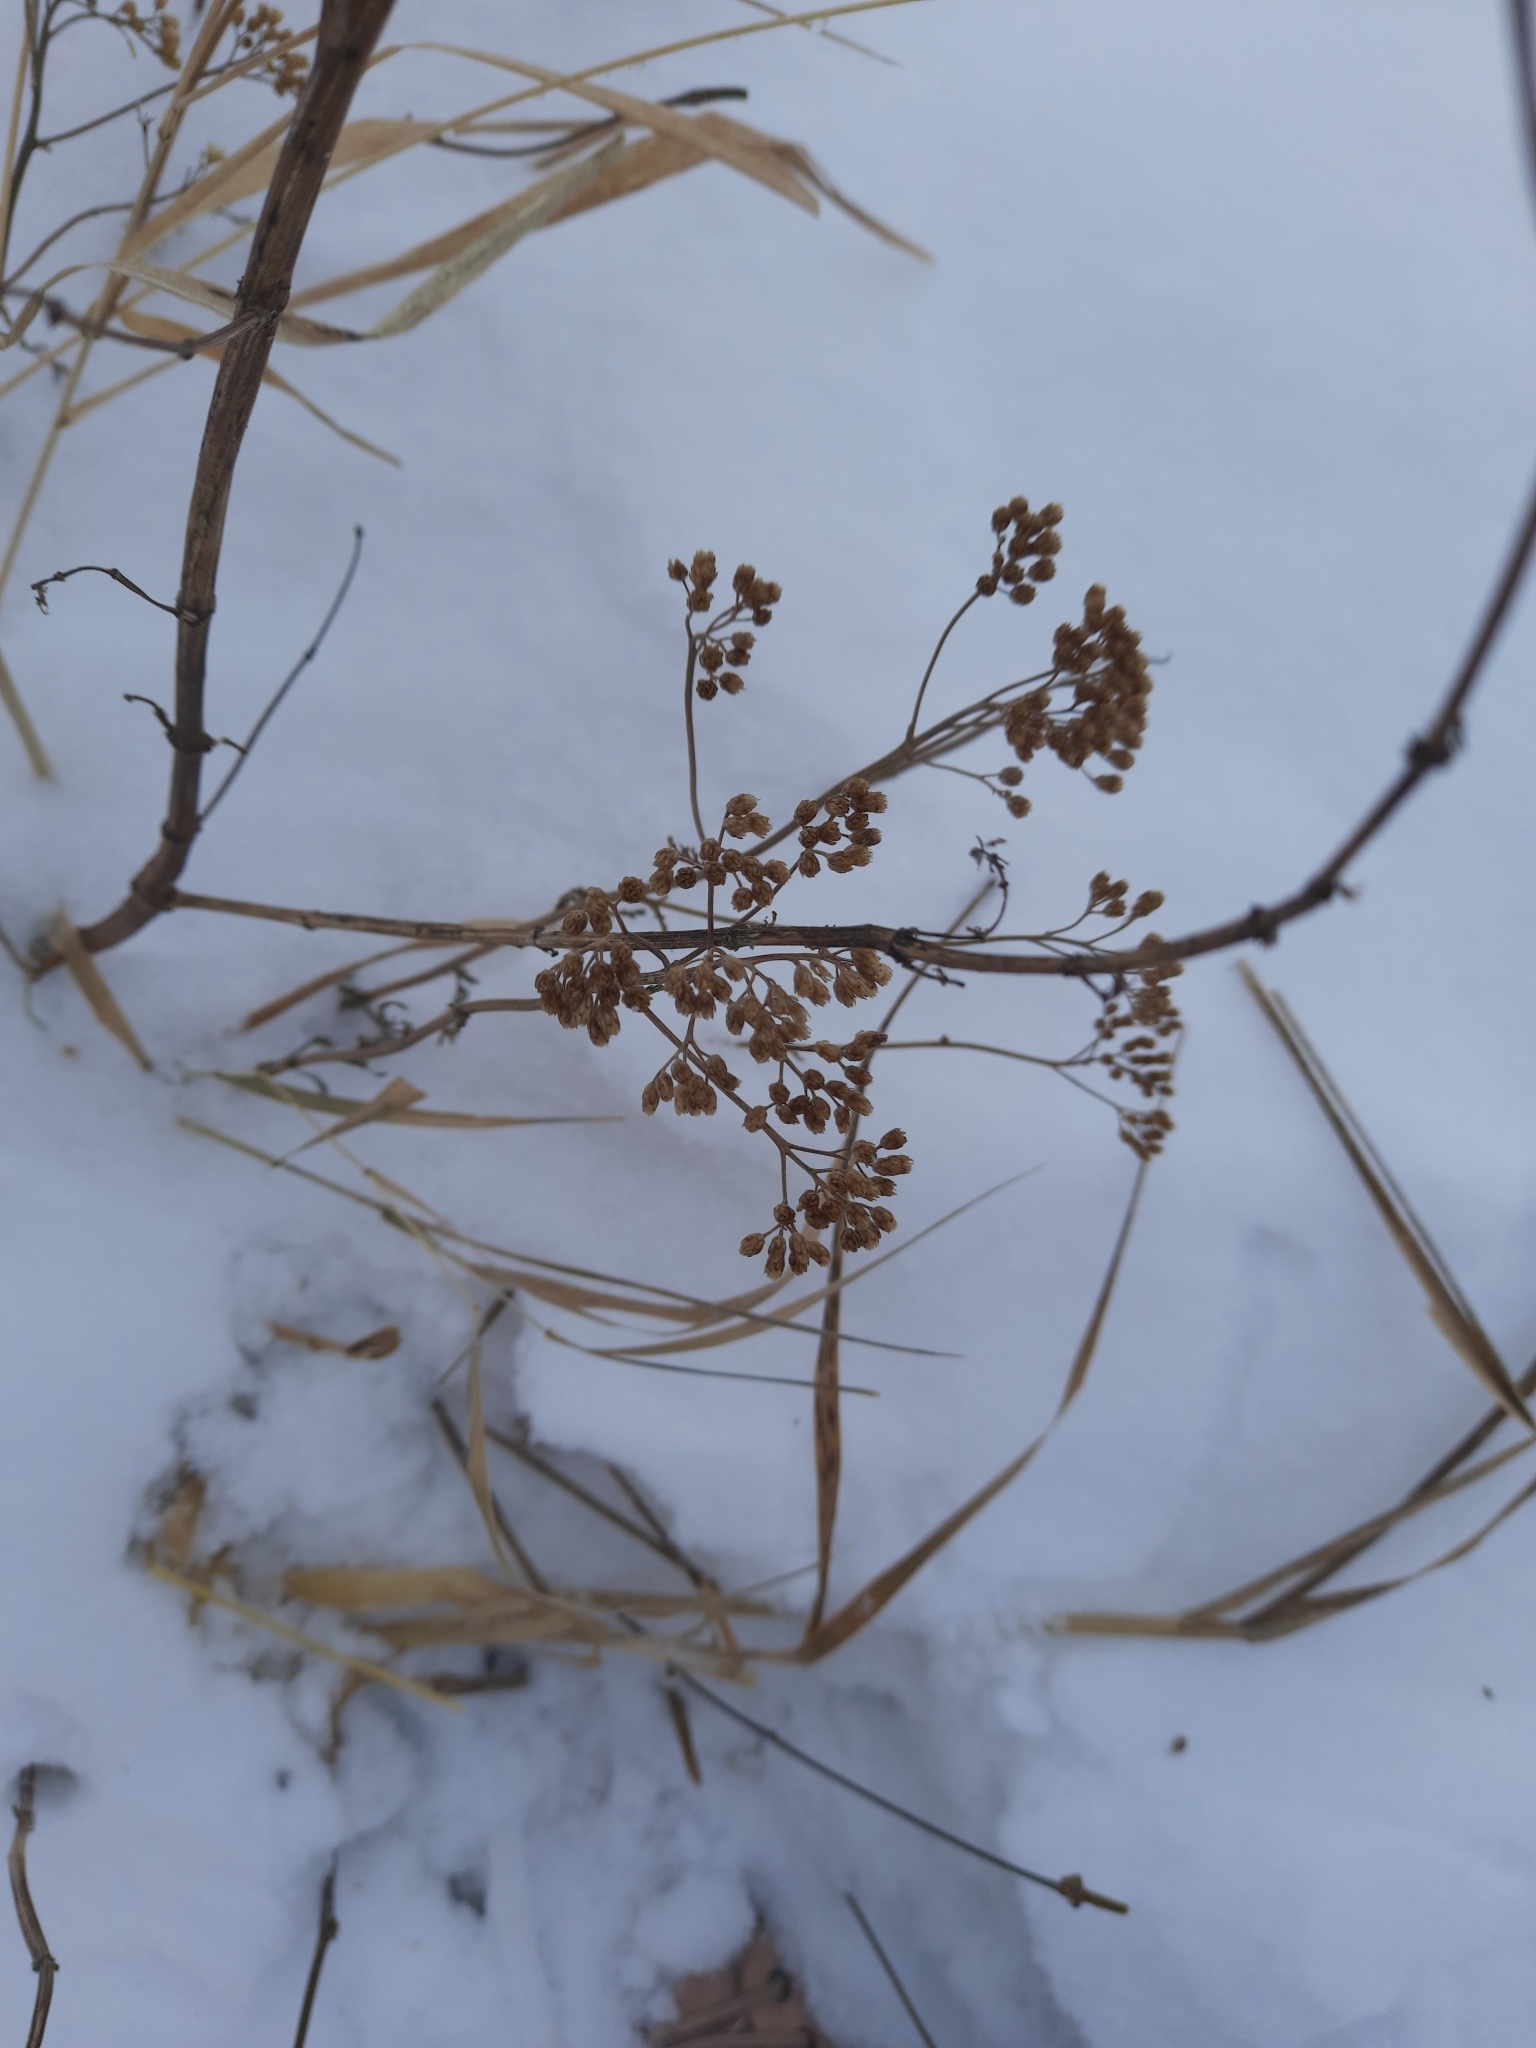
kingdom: Plantae
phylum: Tracheophyta
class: Magnoliopsida
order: Asterales
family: Asteraceae
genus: Achillea
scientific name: Achillea millefolium
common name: Yarrow
